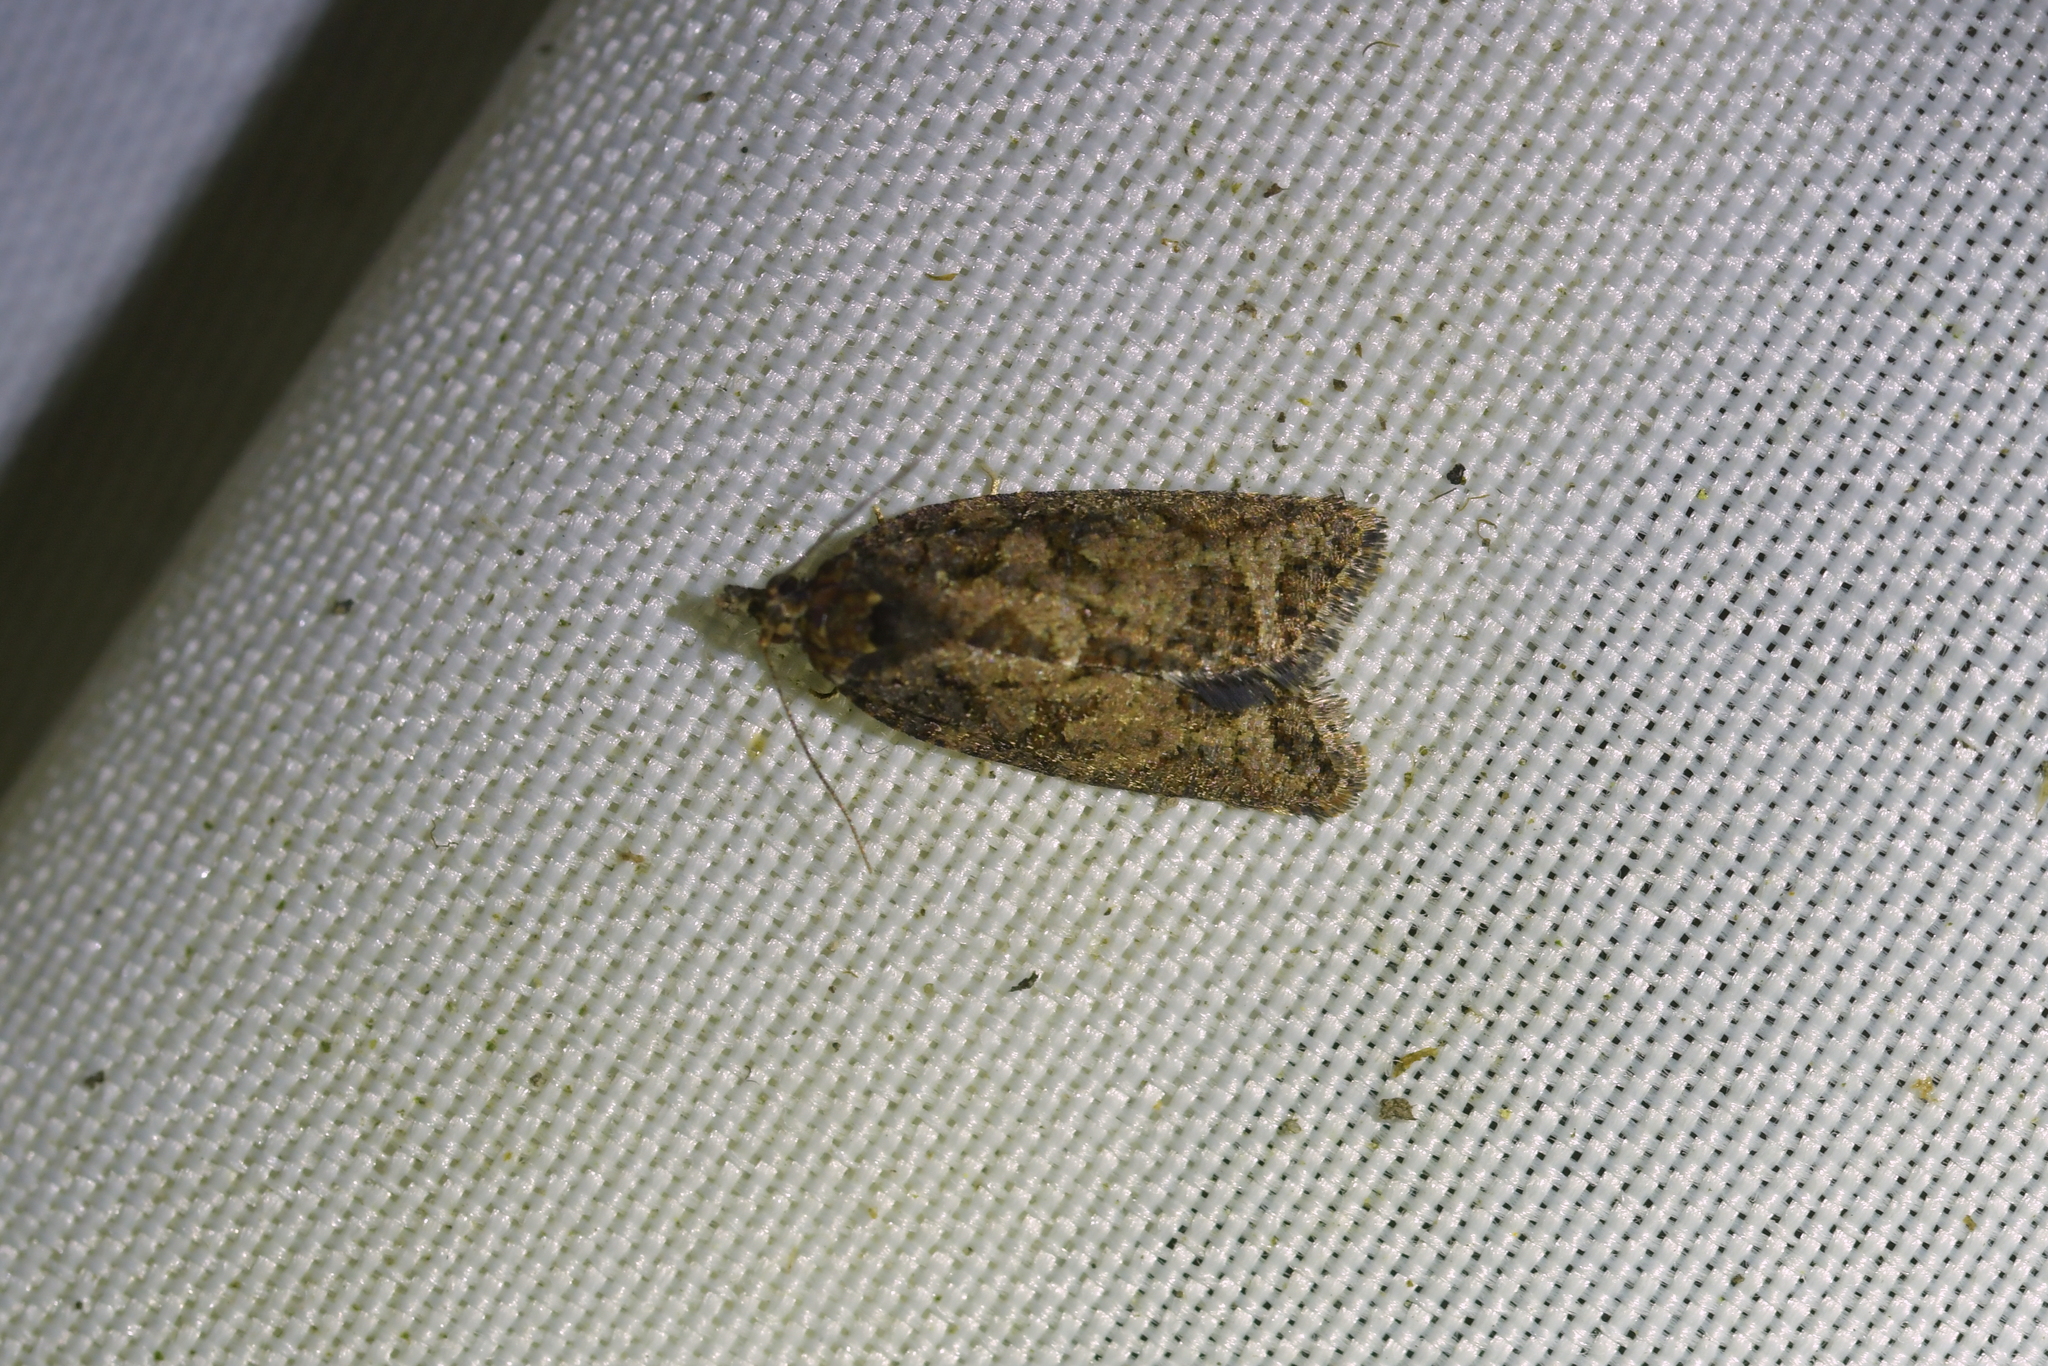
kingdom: Animalia
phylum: Arthropoda
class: Insecta
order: Lepidoptera
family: Tortricidae
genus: Capua
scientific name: Capua intractana
